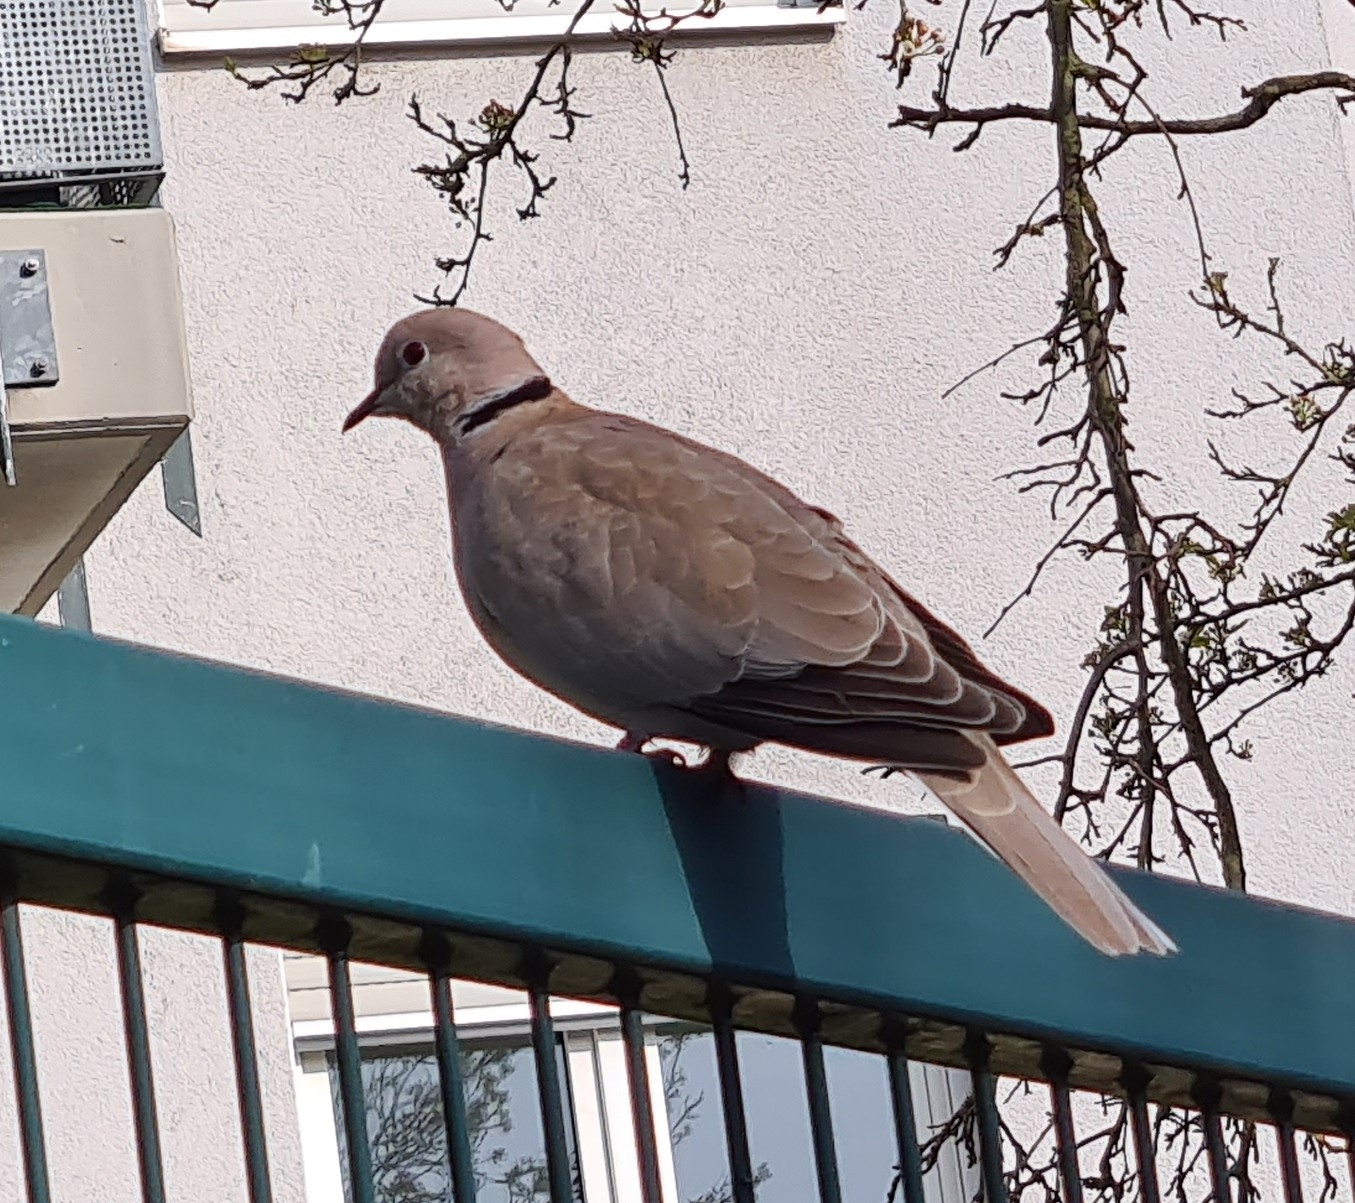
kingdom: Animalia
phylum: Chordata
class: Aves
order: Columbiformes
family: Columbidae
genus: Streptopelia
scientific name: Streptopelia decaocto
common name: Eurasian collared dove
